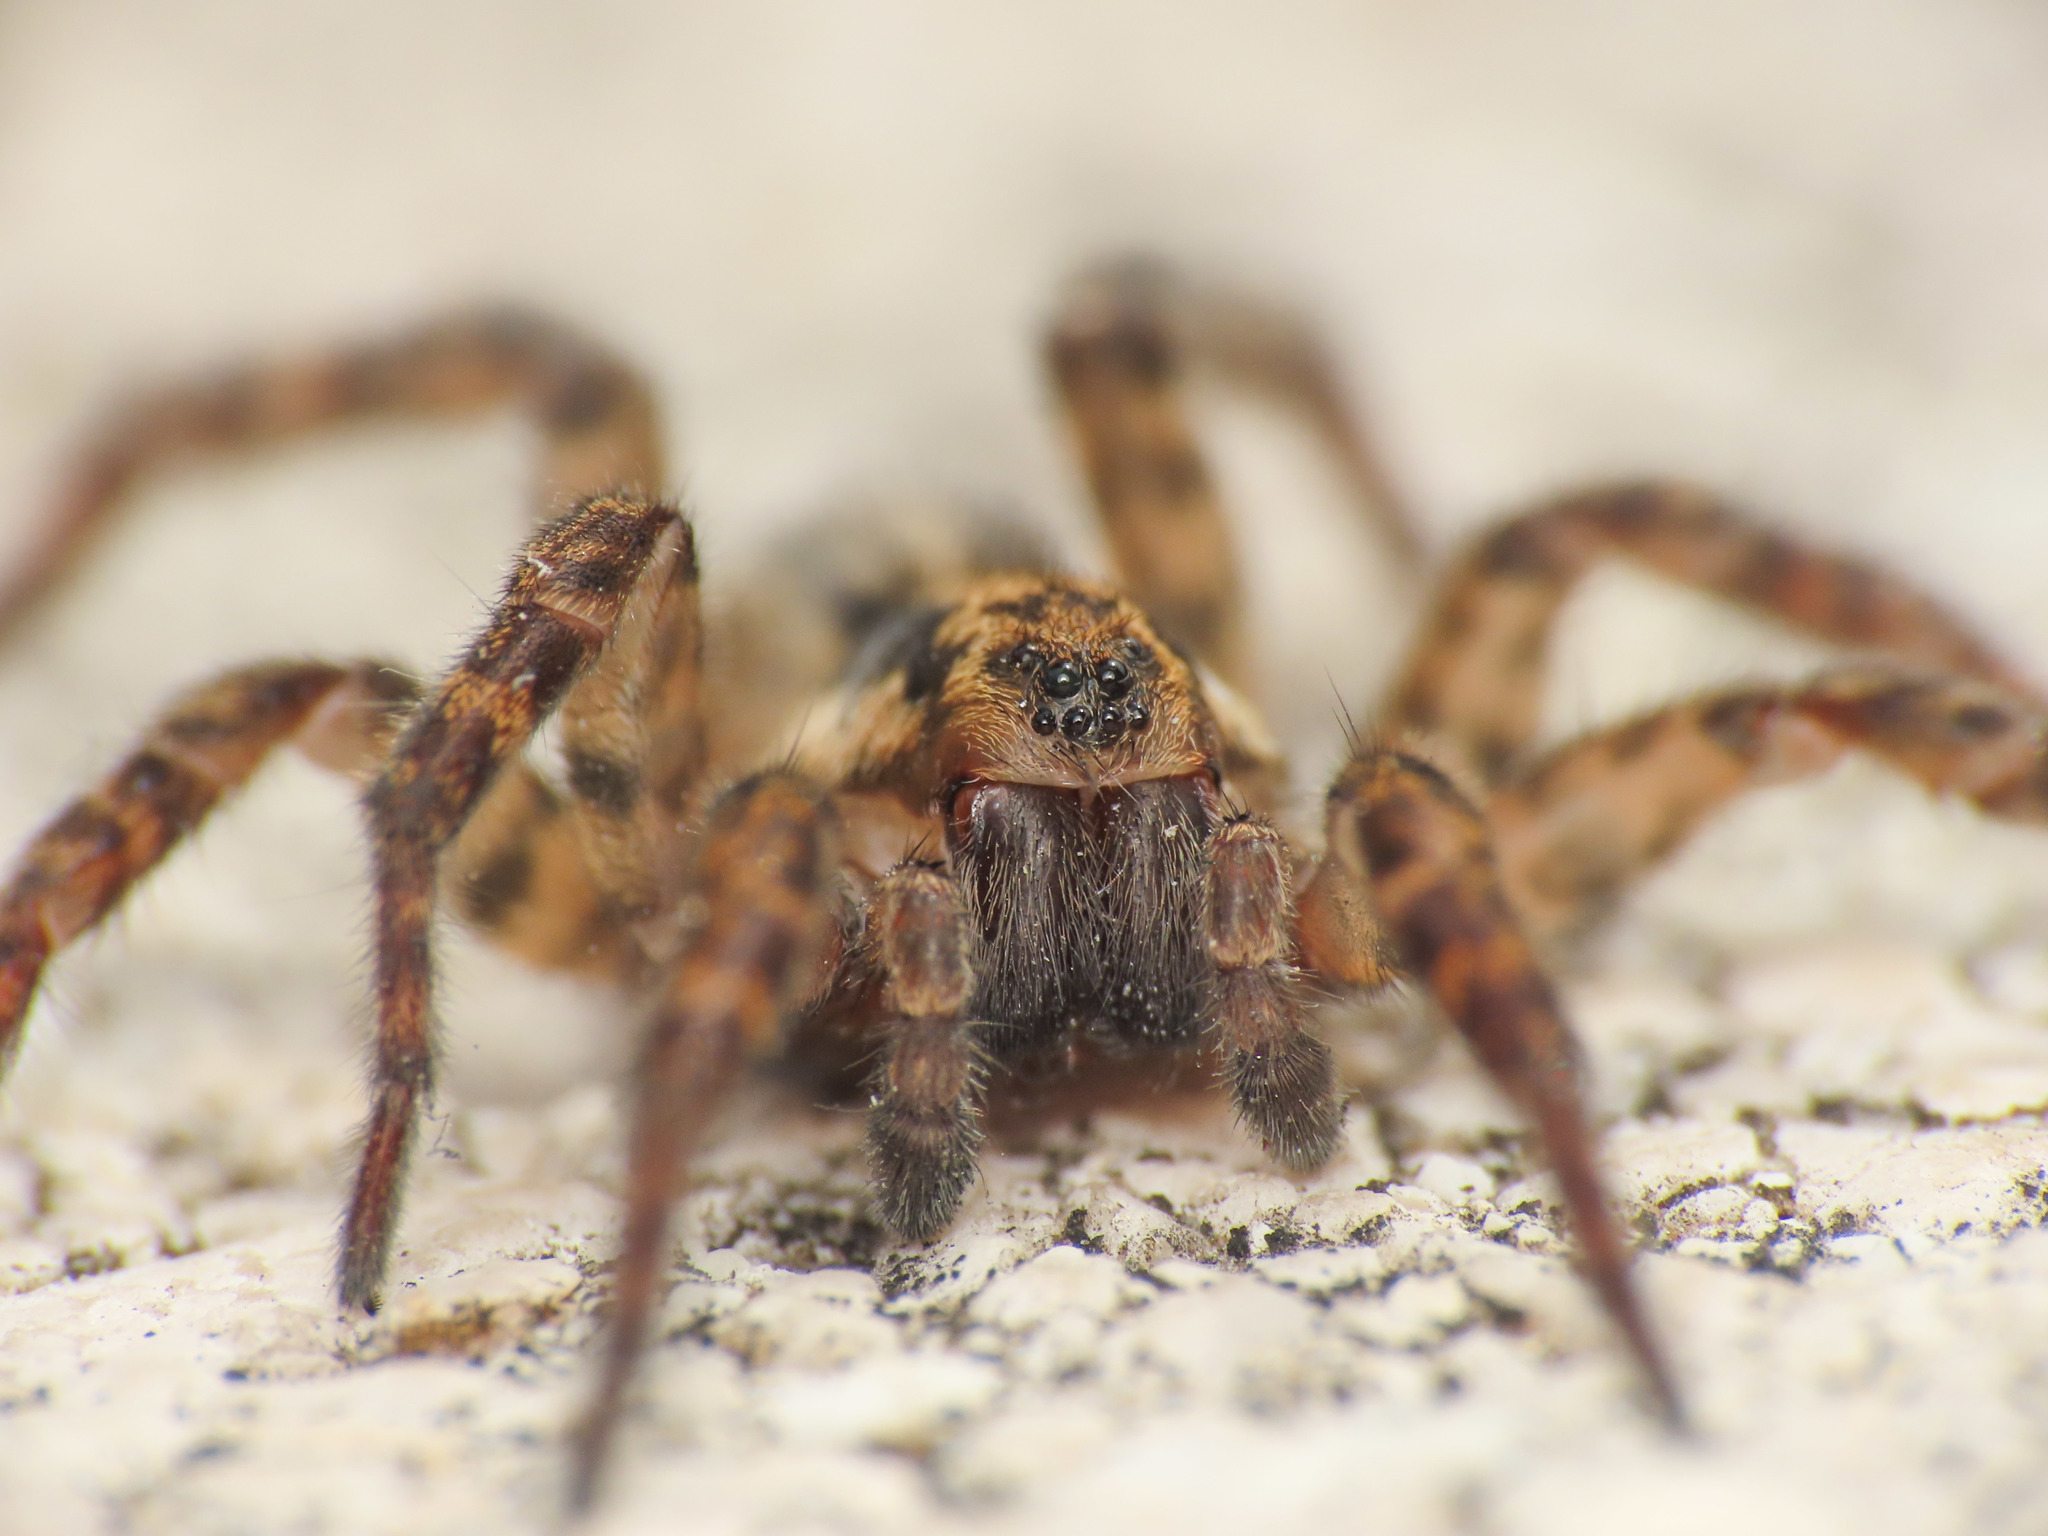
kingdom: Animalia
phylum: Arthropoda
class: Arachnida
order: Araneae
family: Lycosidae
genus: Arctosa
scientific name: Arctosa personata
